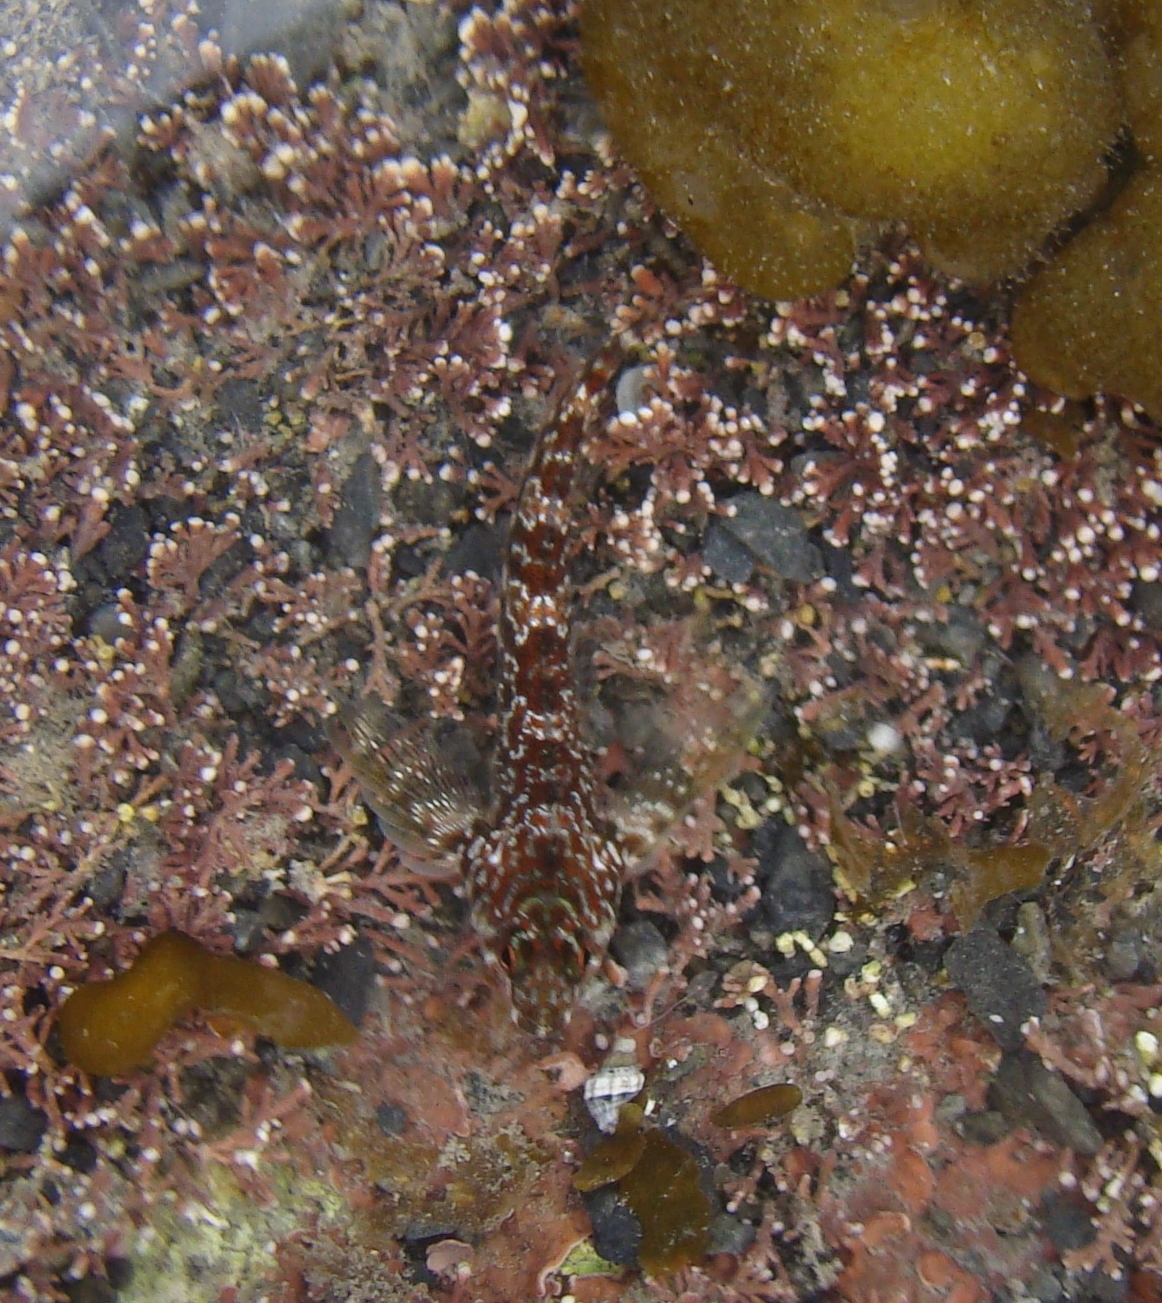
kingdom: Animalia
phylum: Chordata
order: Perciformes
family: Tripterygiidae
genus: Bellapiscis
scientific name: Bellapiscis lesleyae
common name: Mottled twister
